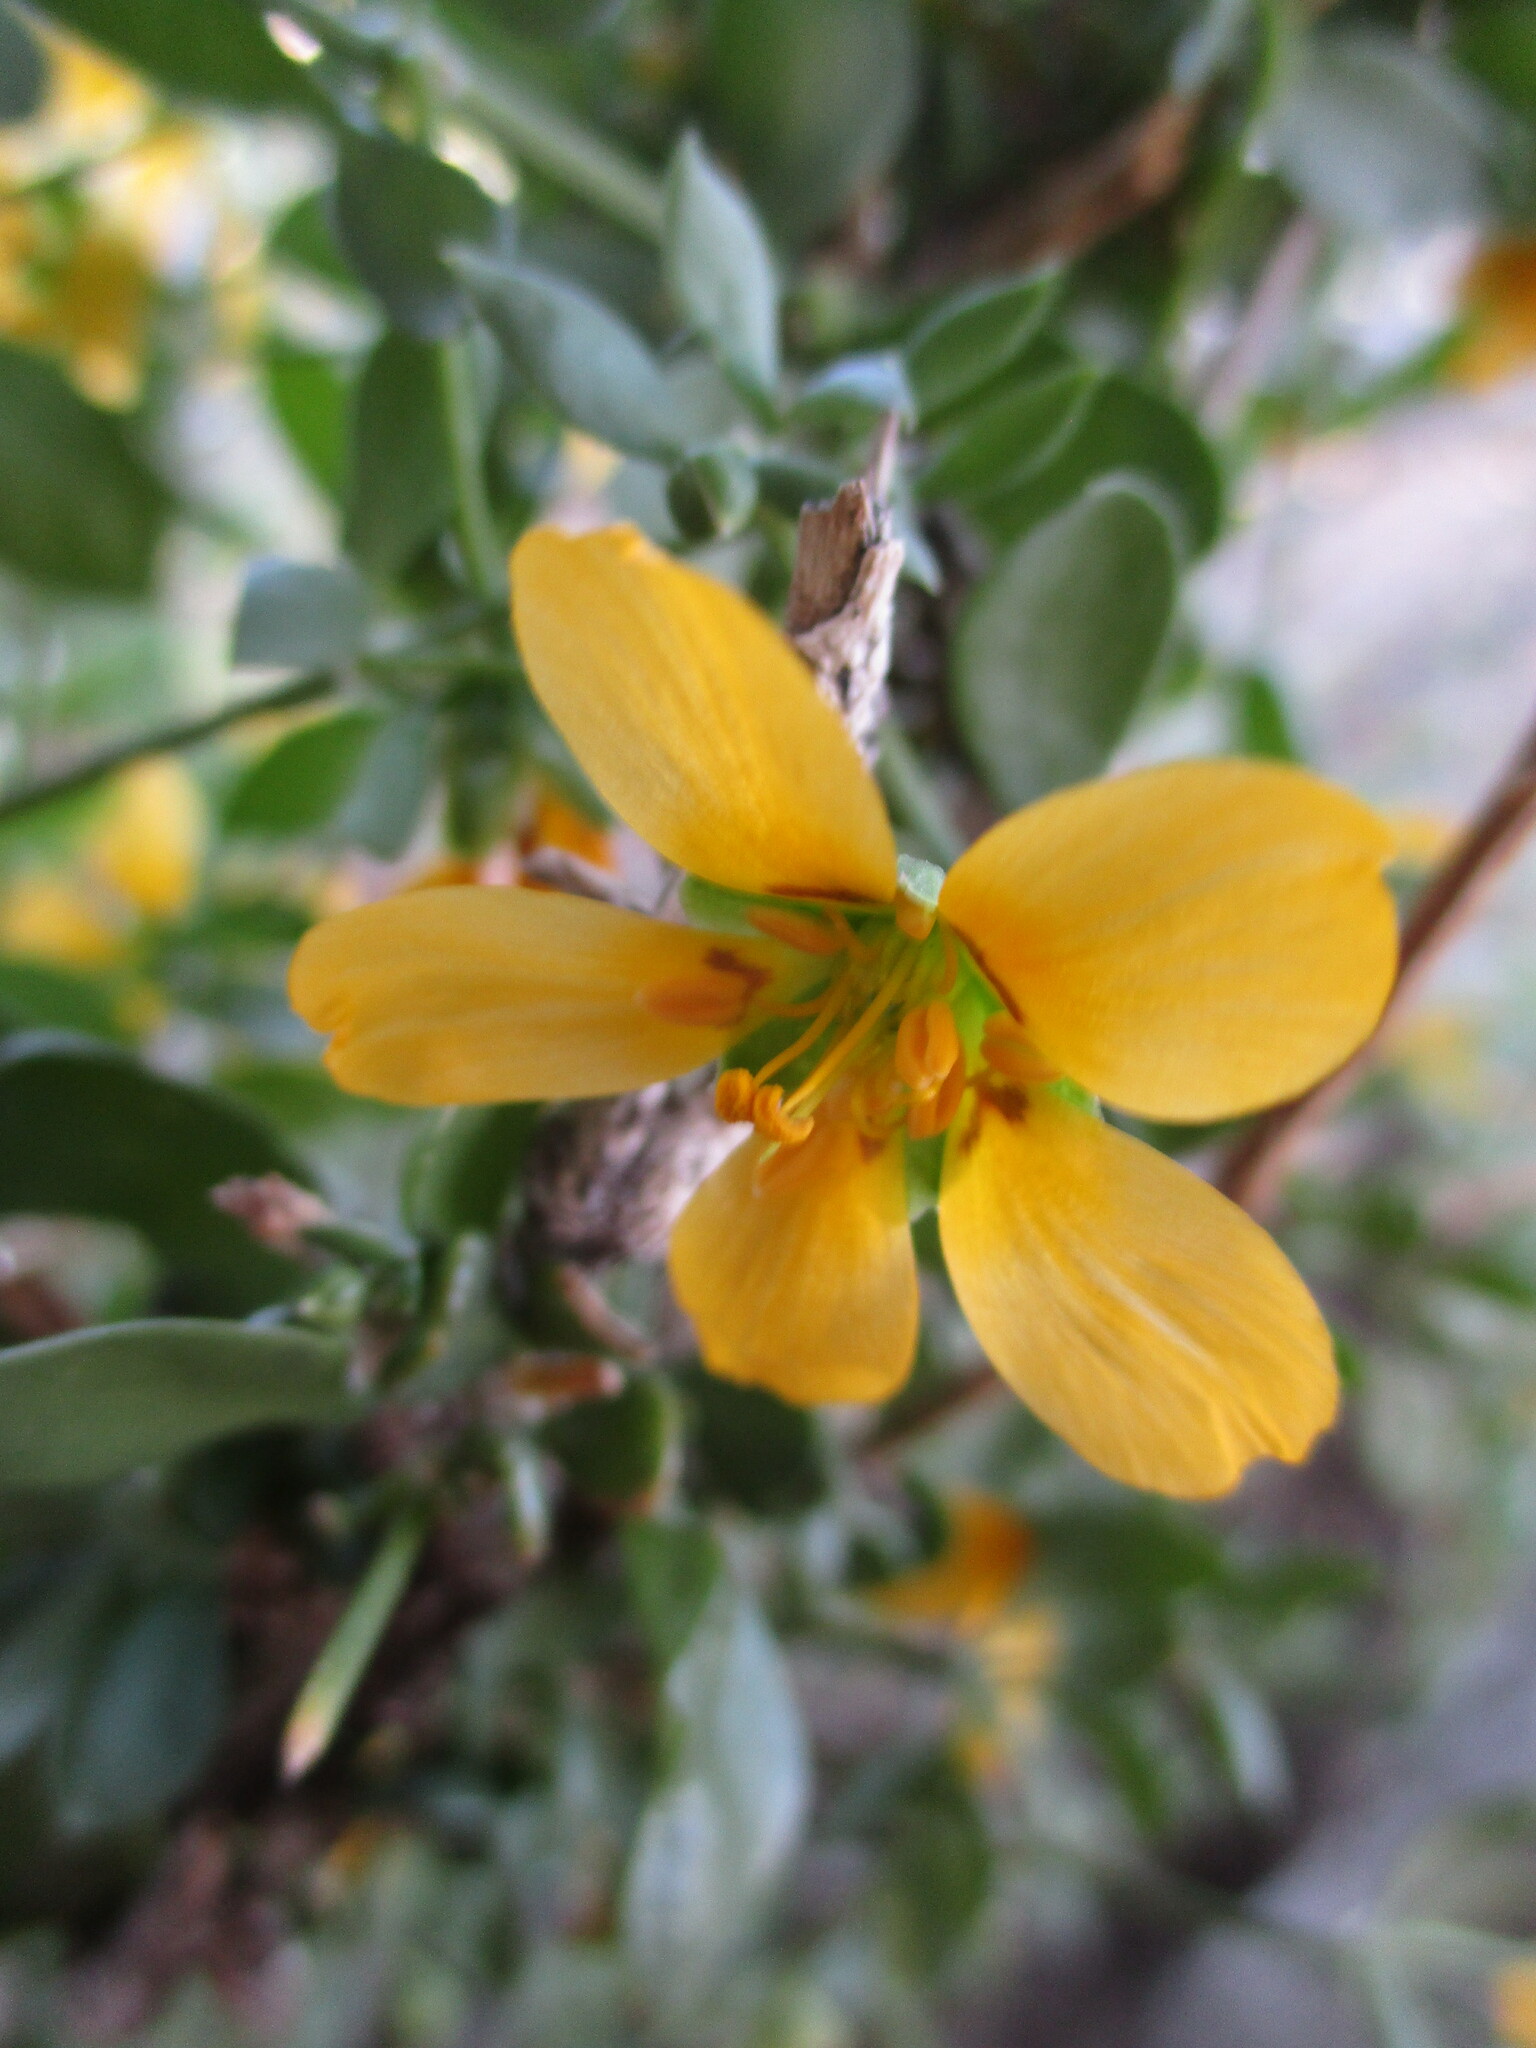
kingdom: Plantae
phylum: Tracheophyta
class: Magnoliopsida
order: Zygophyllales
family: Zygophyllaceae
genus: Roepera
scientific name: Roepera pubescens
